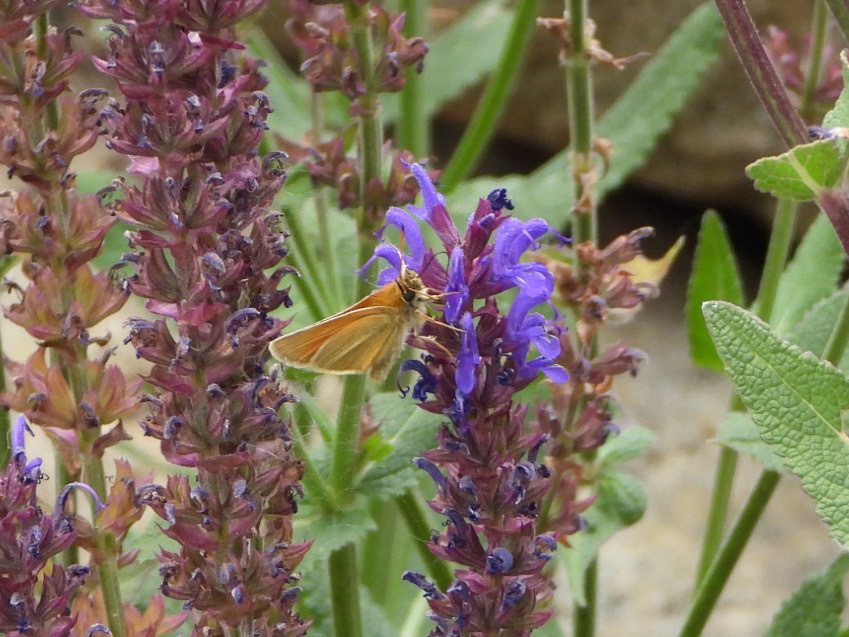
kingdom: Animalia
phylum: Arthropoda
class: Insecta
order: Lepidoptera
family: Hesperiidae
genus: Thymelicus
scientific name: Thymelicus lineola
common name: Essex skipper
